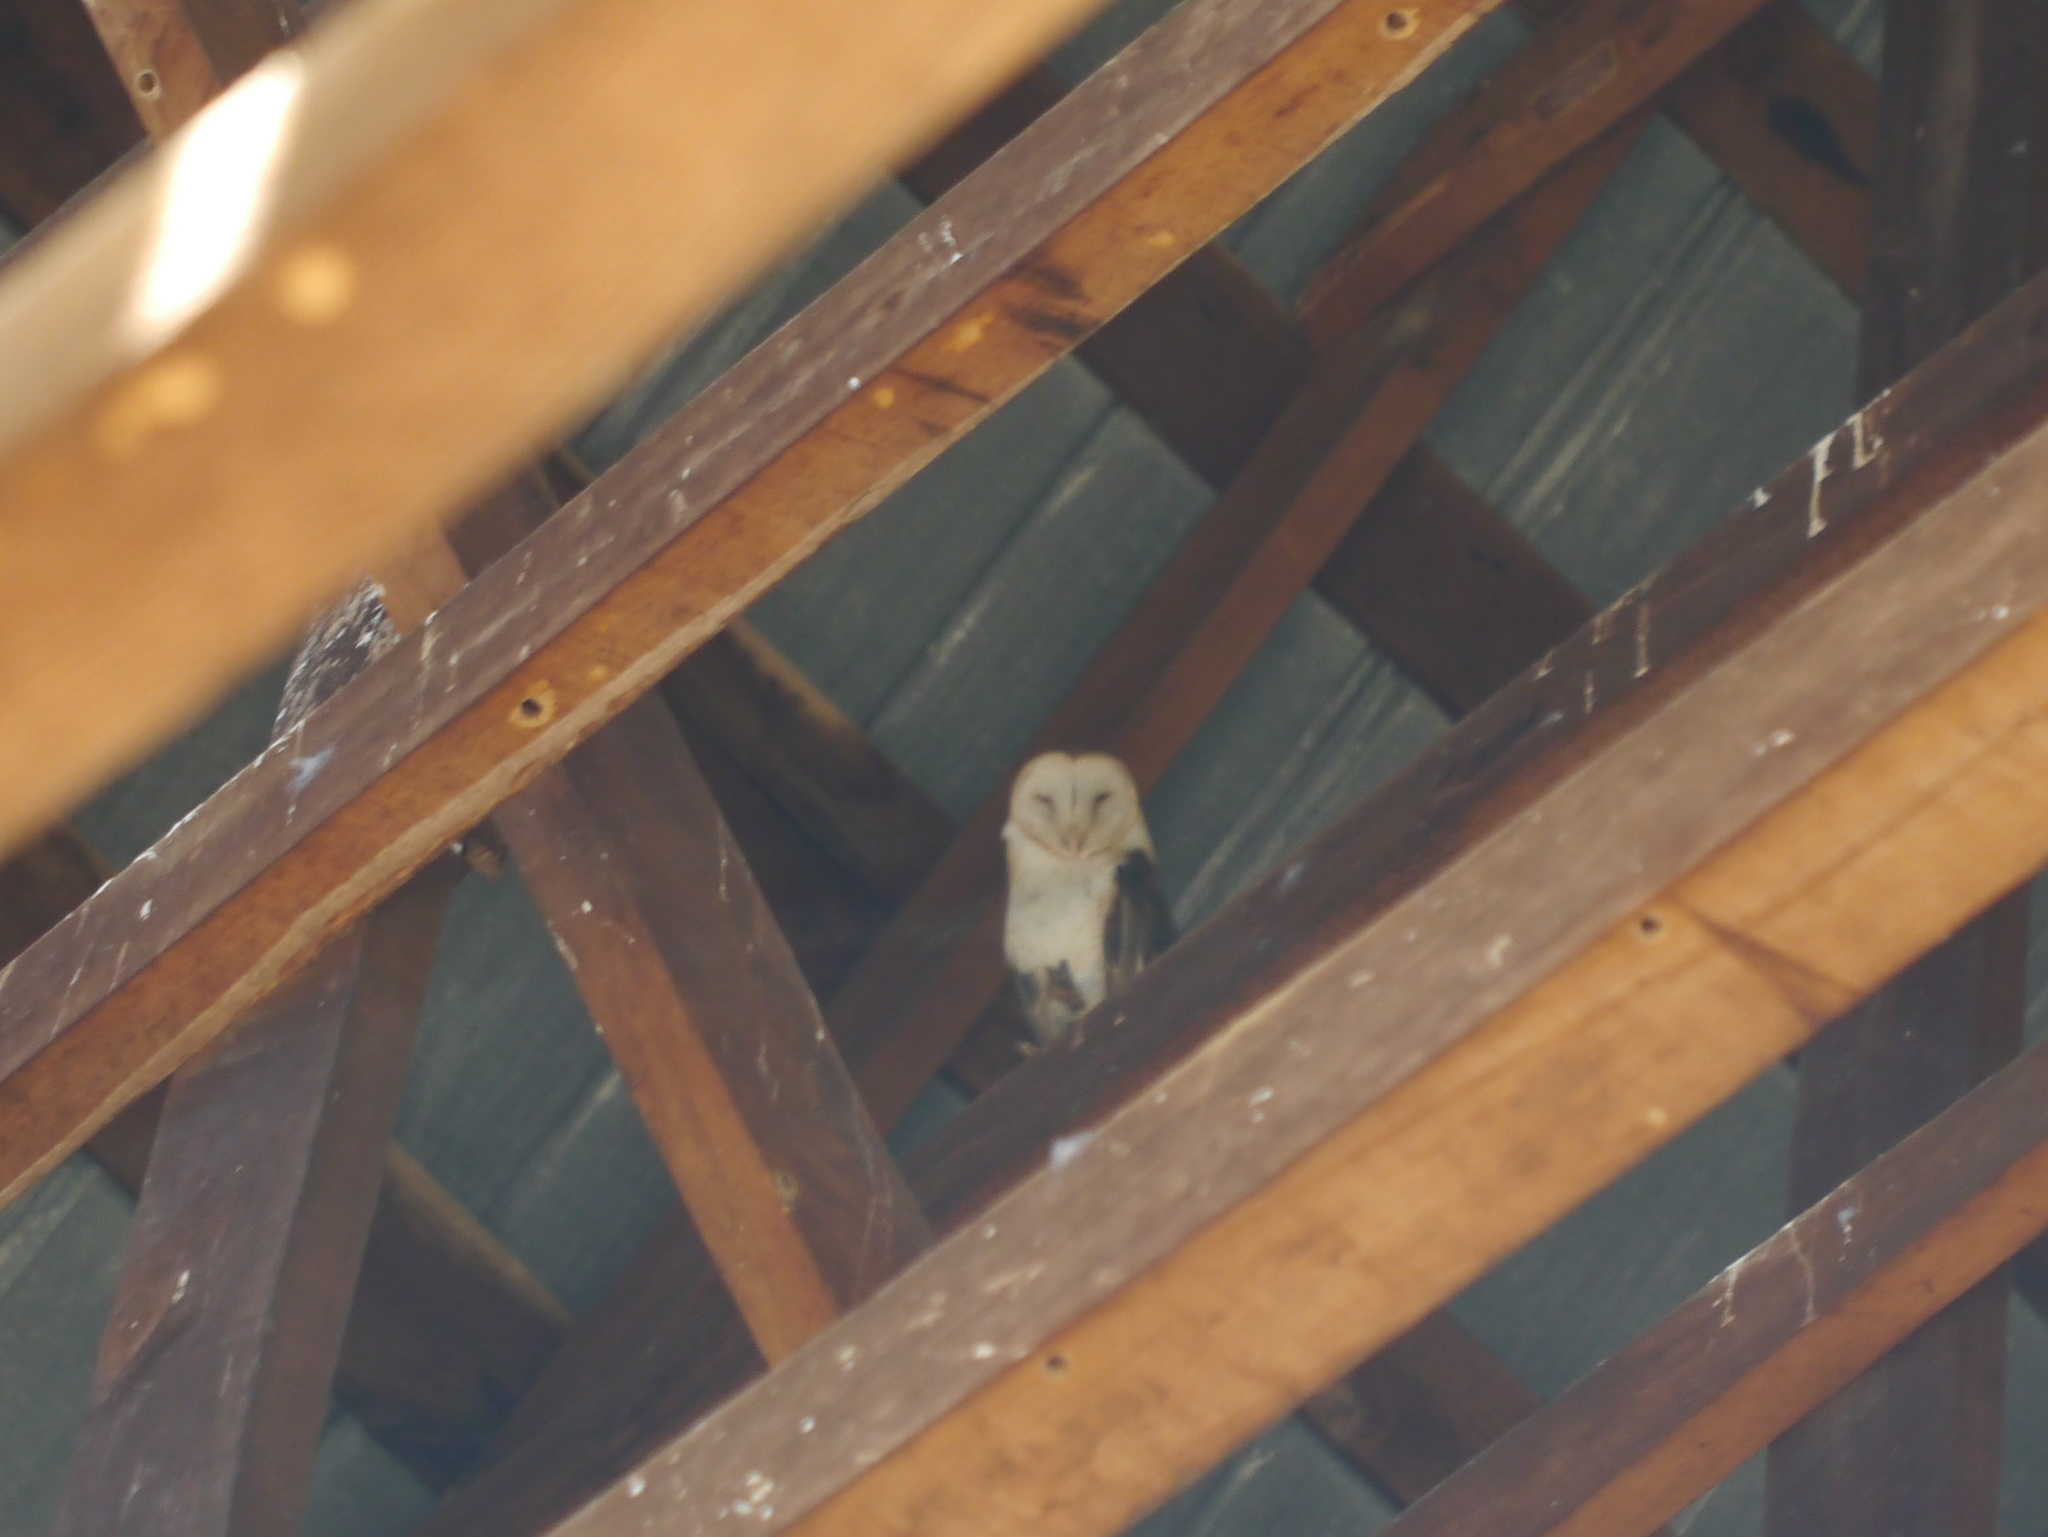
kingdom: Animalia
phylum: Chordata
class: Aves
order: Strigiformes
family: Tytonidae
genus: Tyto
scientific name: Tyto alba
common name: Barn owl
